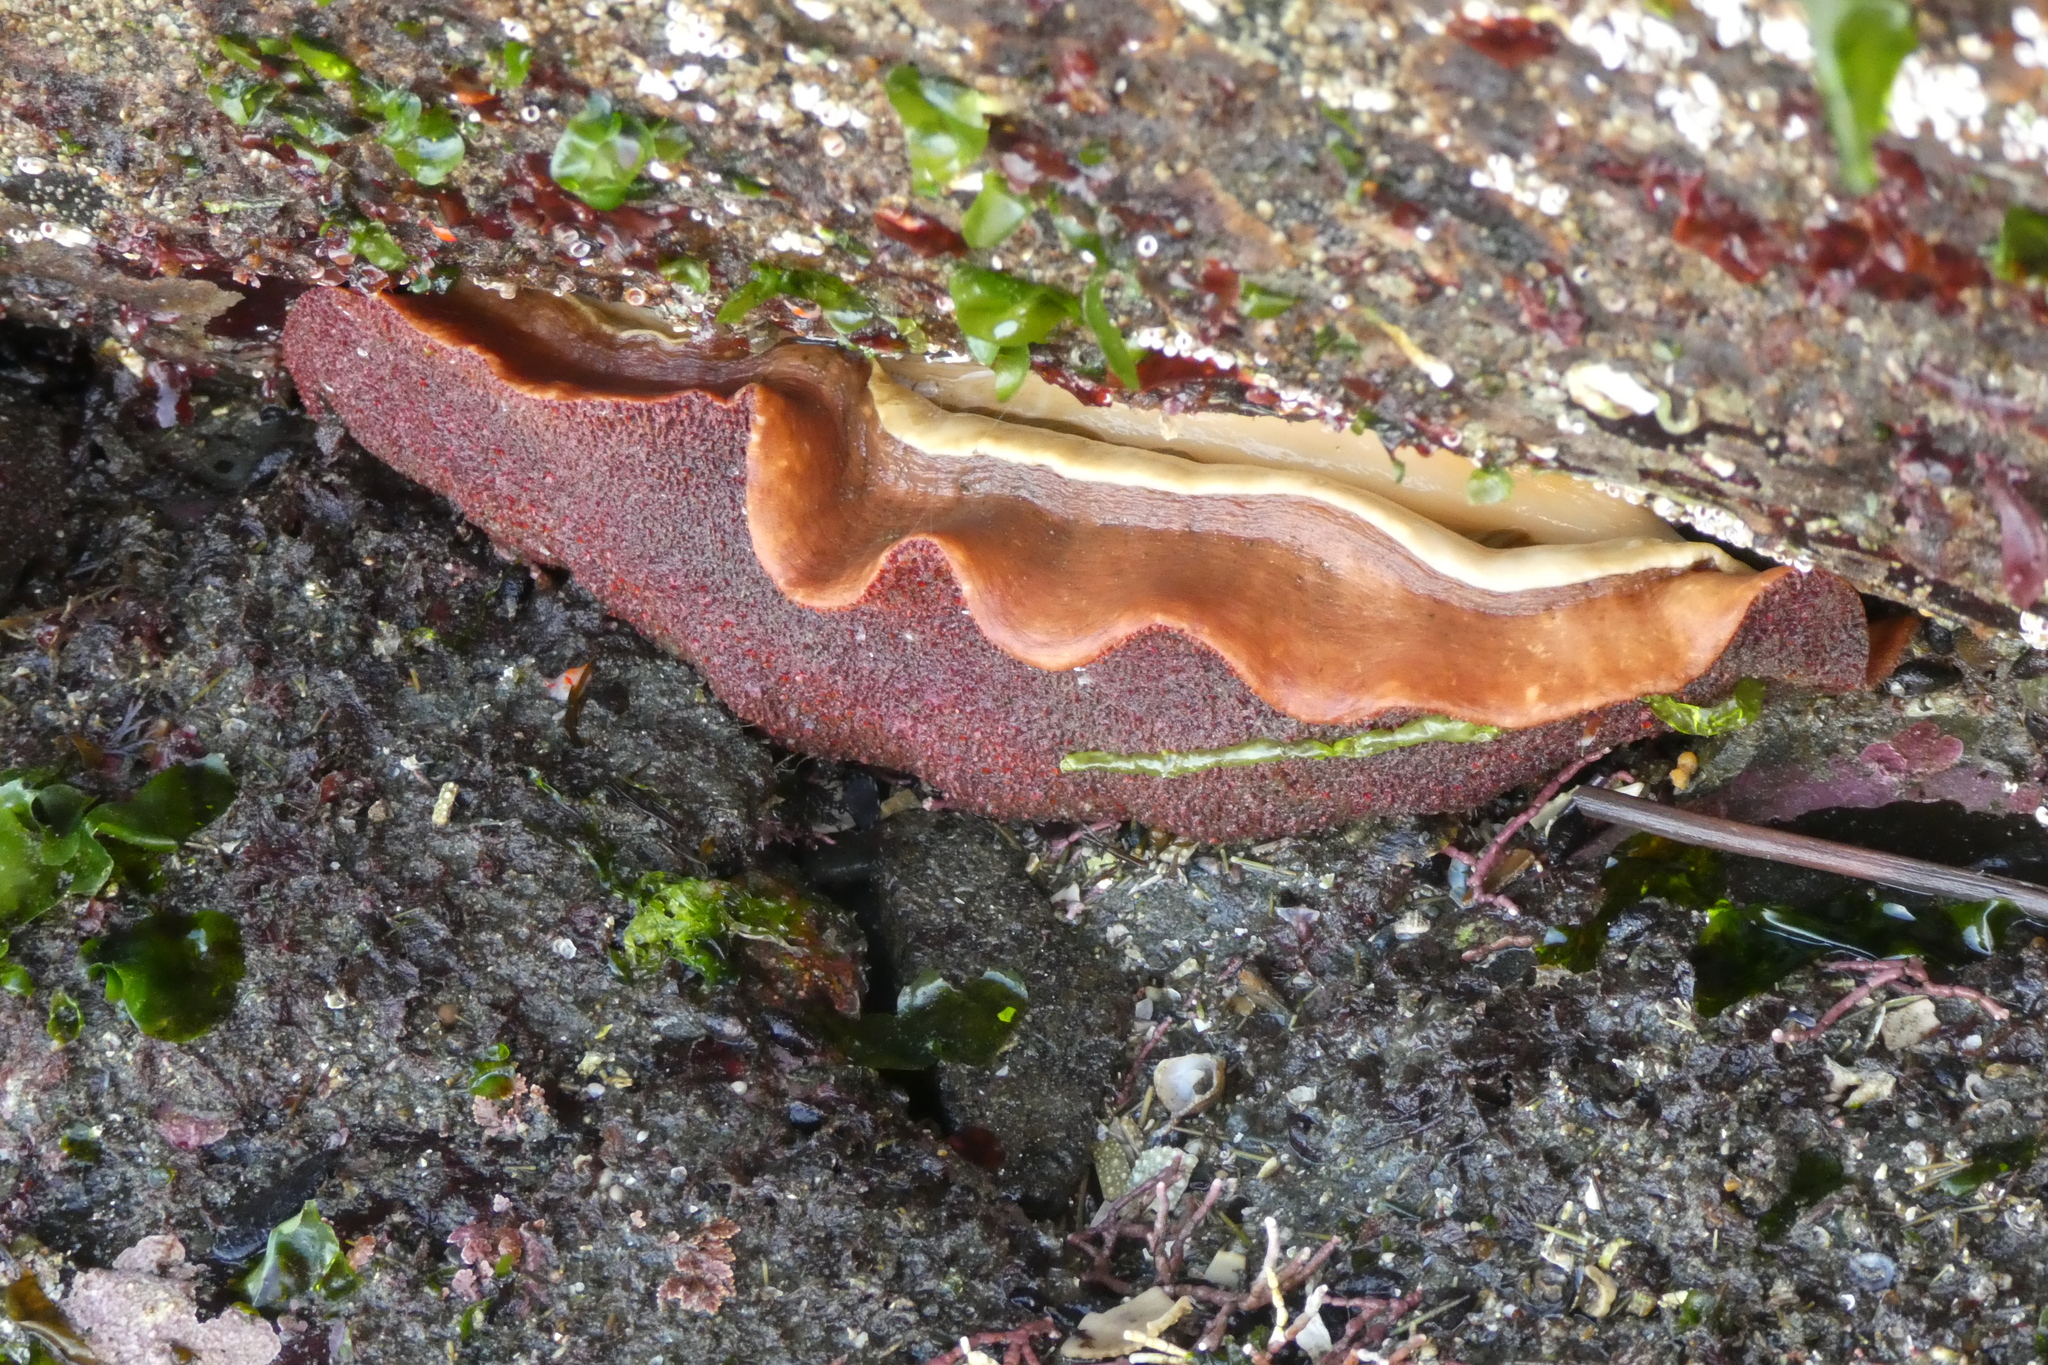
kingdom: Animalia
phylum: Mollusca
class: Polyplacophora
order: Chitonida
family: Acanthochitonidae
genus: Cryptochiton
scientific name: Cryptochiton stelleri
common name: Giant pacific chiton
